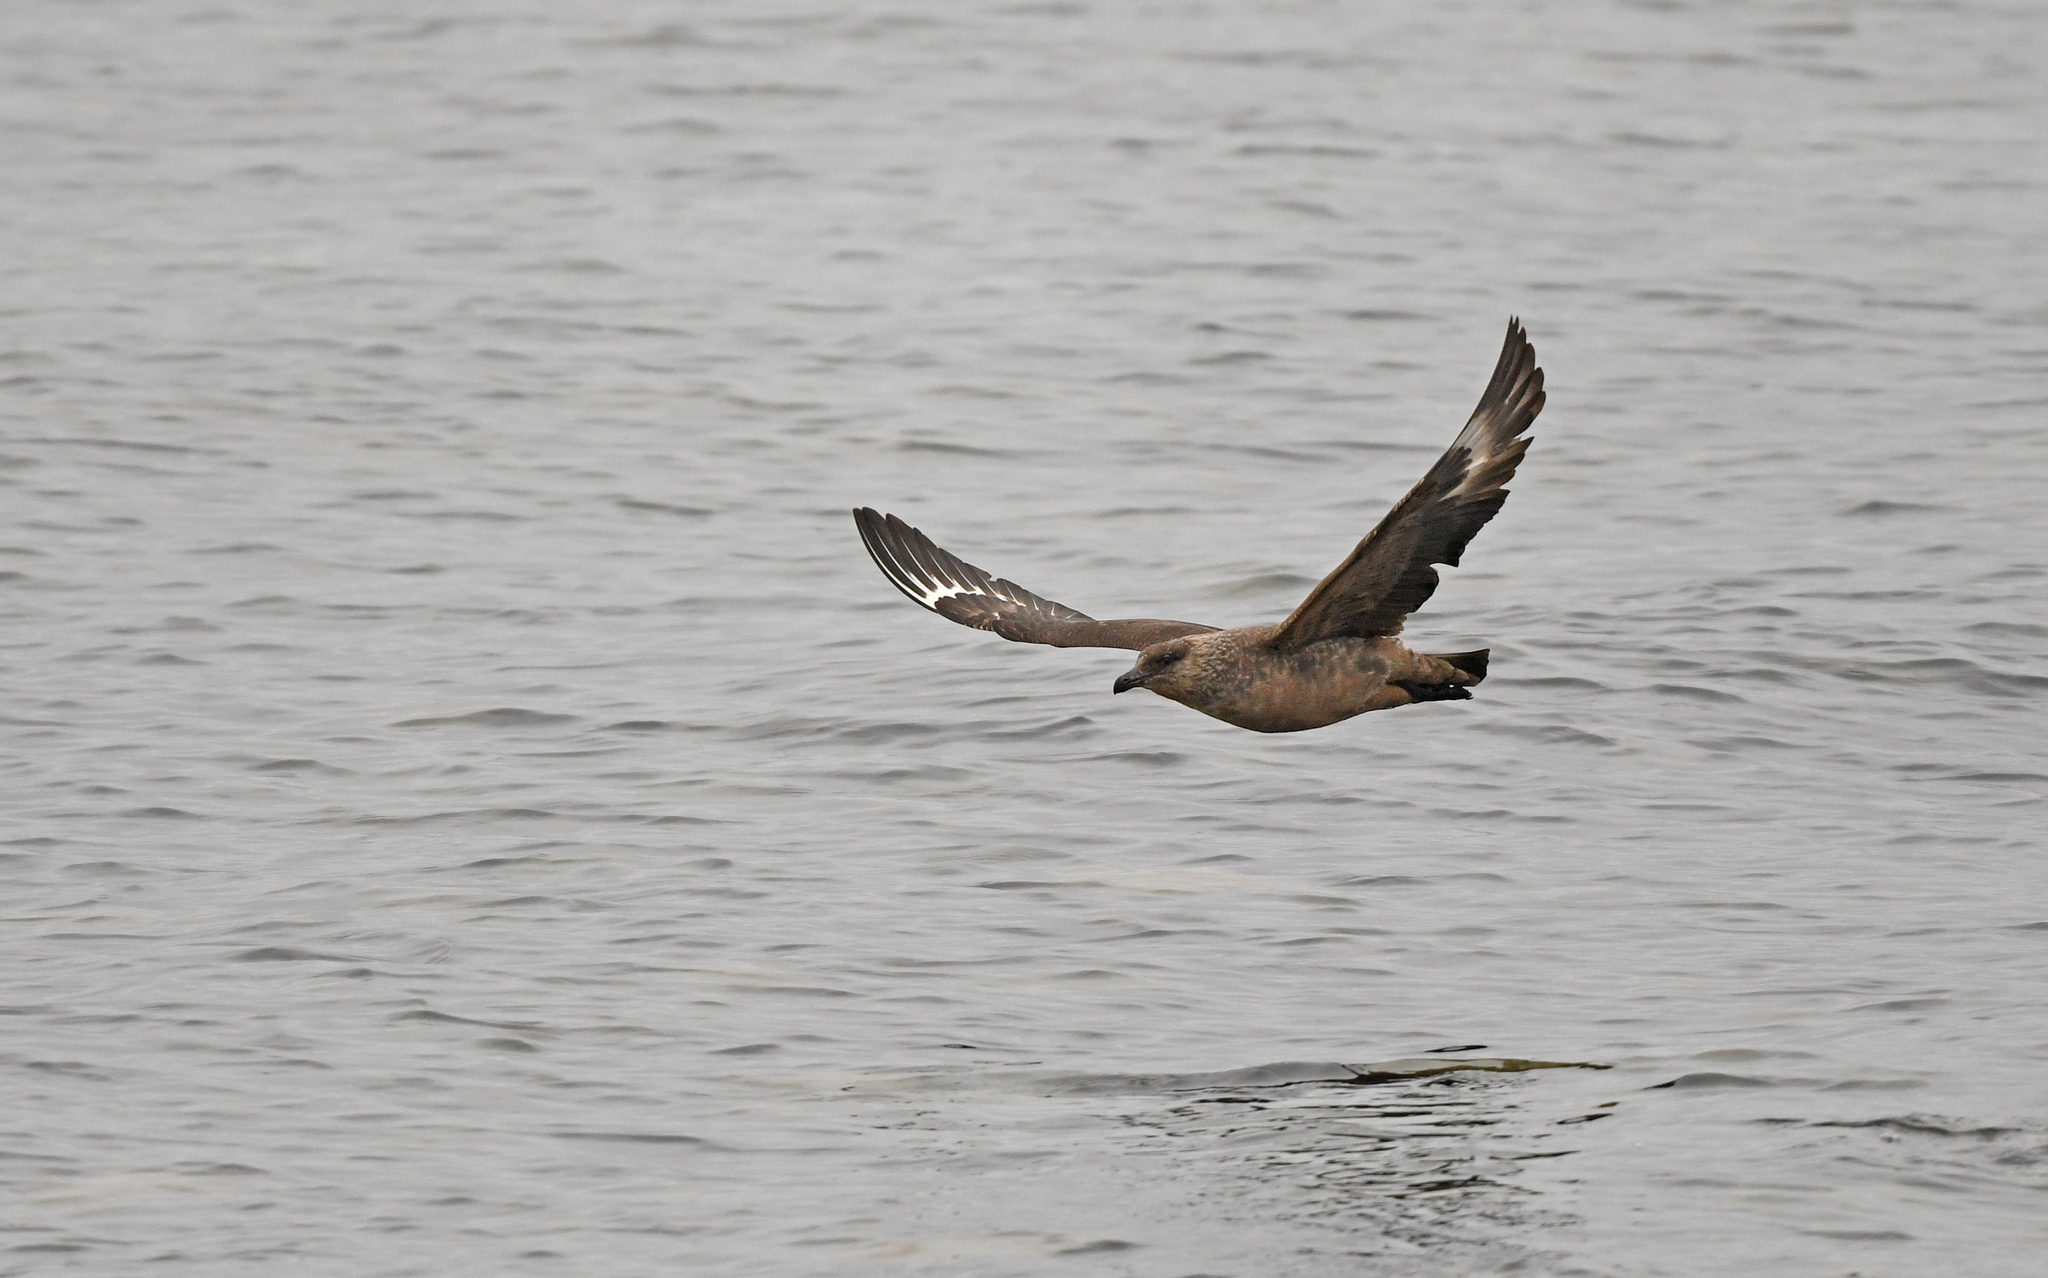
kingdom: Animalia
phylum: Chordata
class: Aves
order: Charadriiformes
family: Stercorariidae
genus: Stercorarius
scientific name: Stercorarius chilensis
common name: Chilean skua
